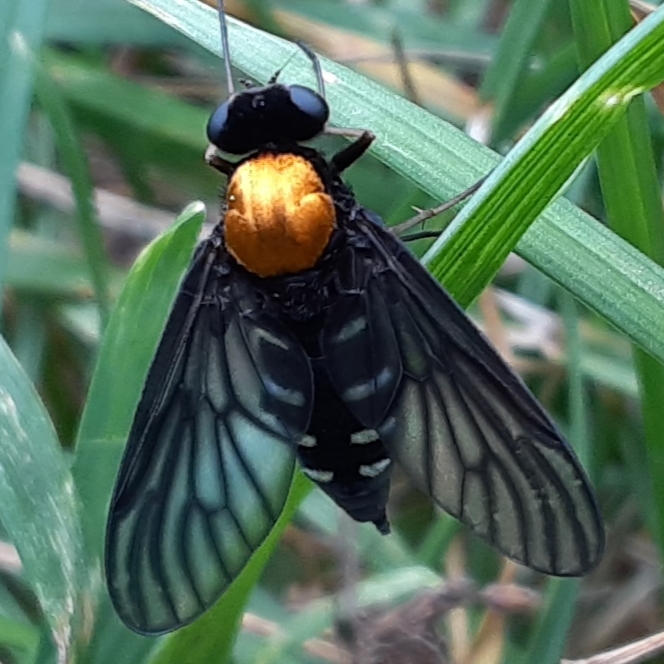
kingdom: Animalia
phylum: Arthropoda
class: Insecta
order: Diptera
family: Rhagionidae
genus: Chrysopilus
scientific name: Chrysopilus thoracicus
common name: Golden-backed snipe fly
